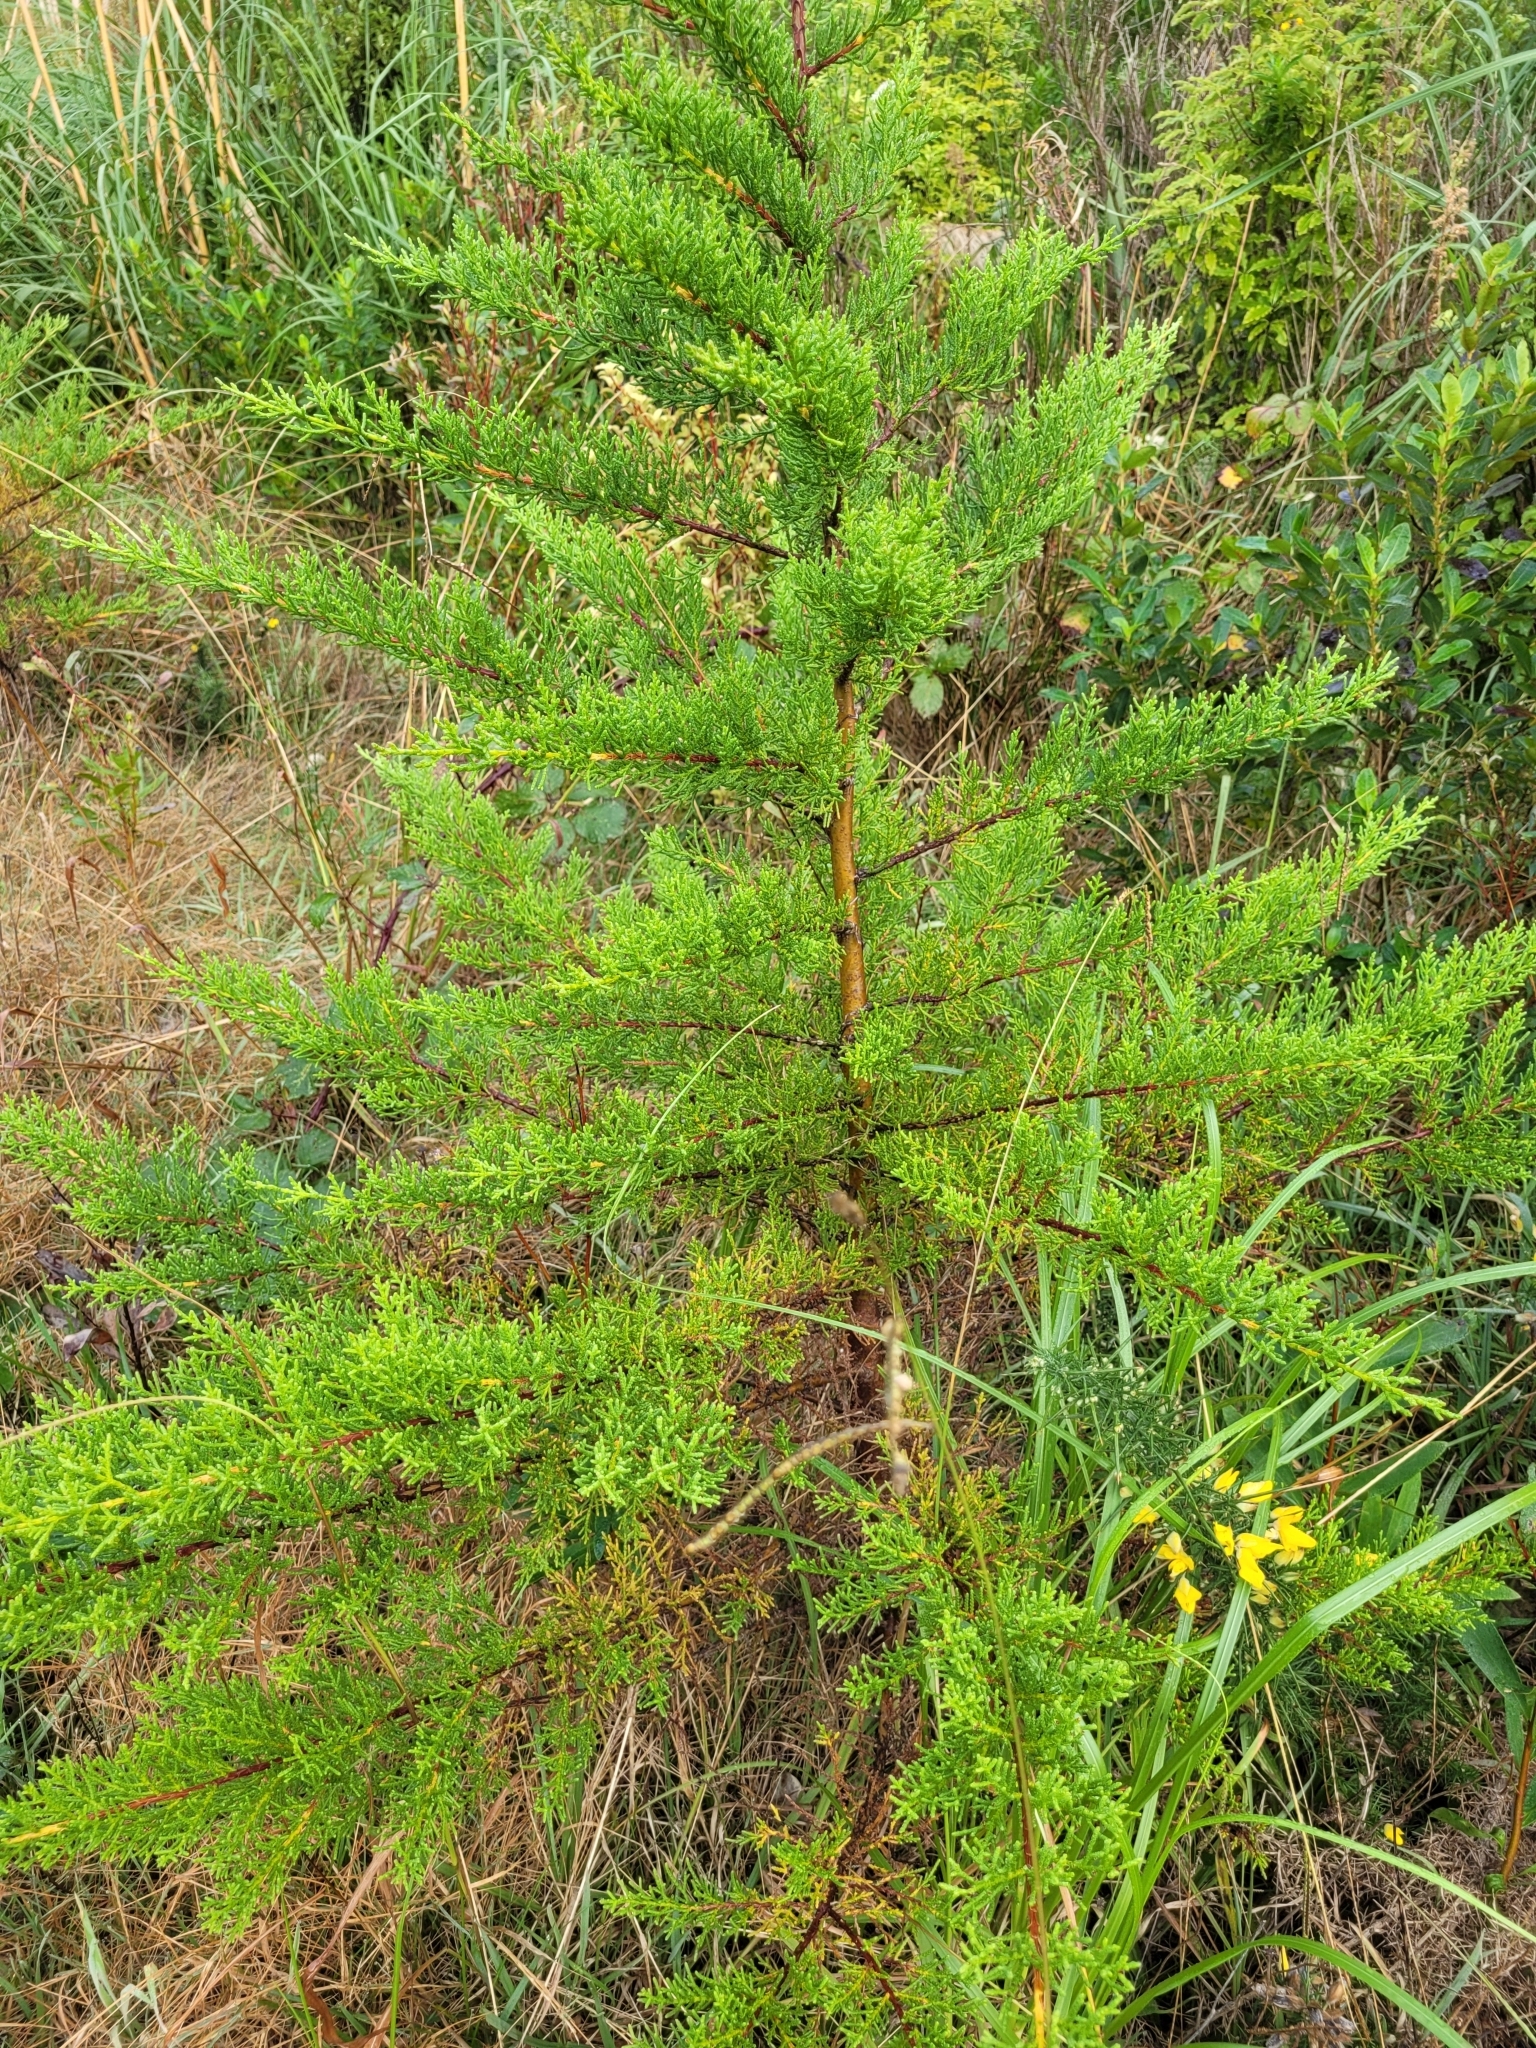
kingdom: Plantae
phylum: Tracheophyta
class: Pinopsida
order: Pinales
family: Cupressaceae
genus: Cupressus
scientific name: Cupressus macrocarpa
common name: Monterey cypress
